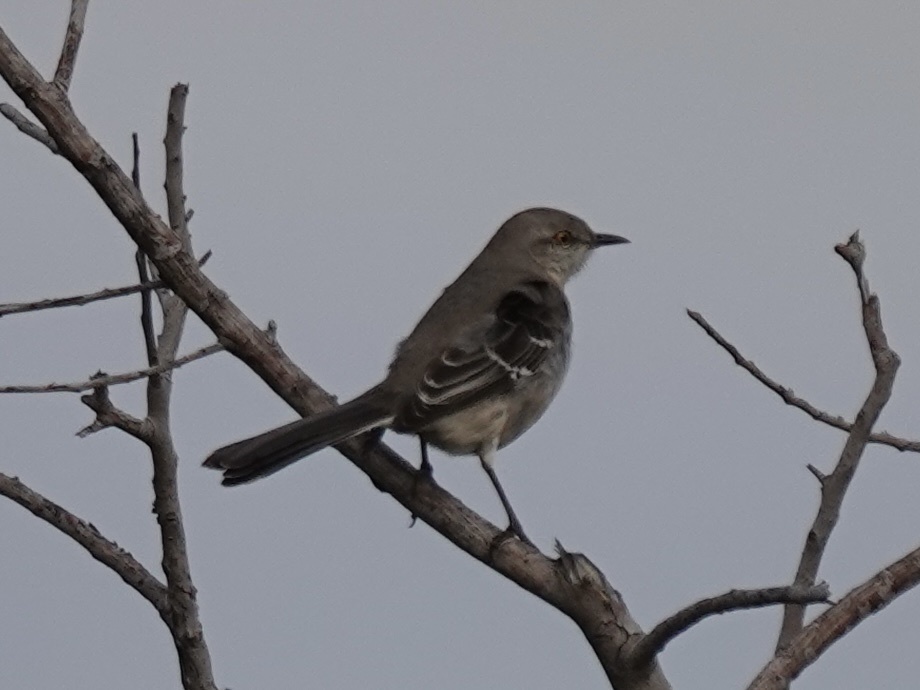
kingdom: Animalia
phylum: Chordata
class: Aves
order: Passeriformes
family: Mimidae
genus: Mimus
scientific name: Mimus polyglottos
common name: Northern mockingbird
